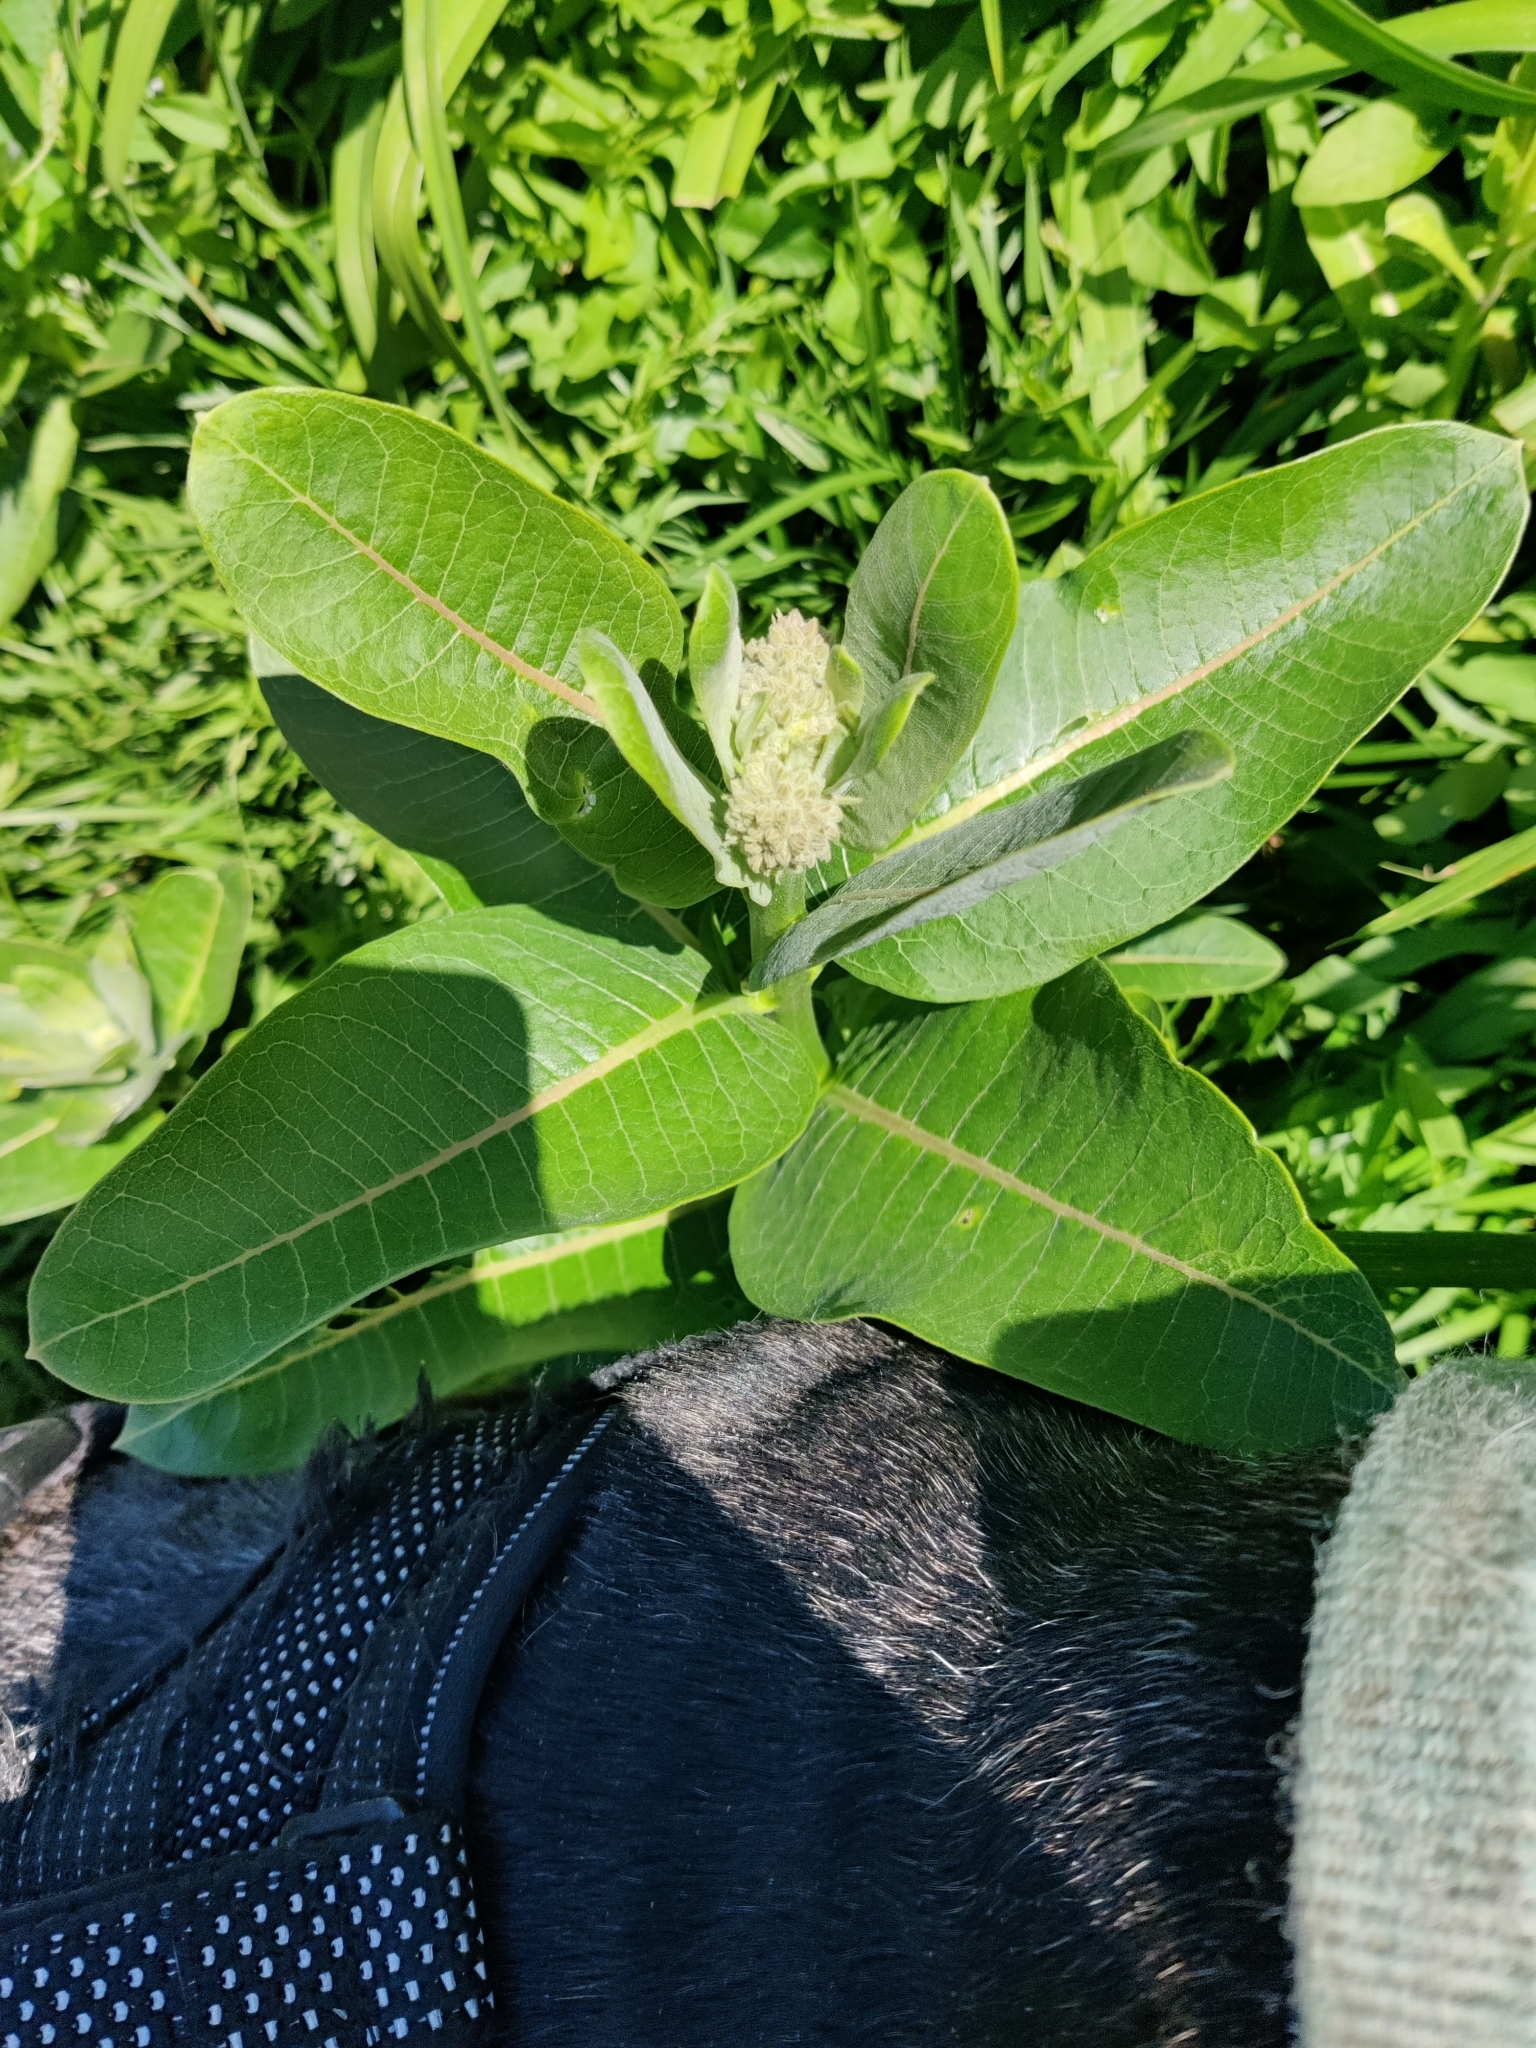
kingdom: Plantae
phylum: Tracheophyta
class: Magnoliopsida
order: Gentianales
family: Apocynaceae
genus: Asclepias
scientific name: Asclepias syriaca
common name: Common milkweed
